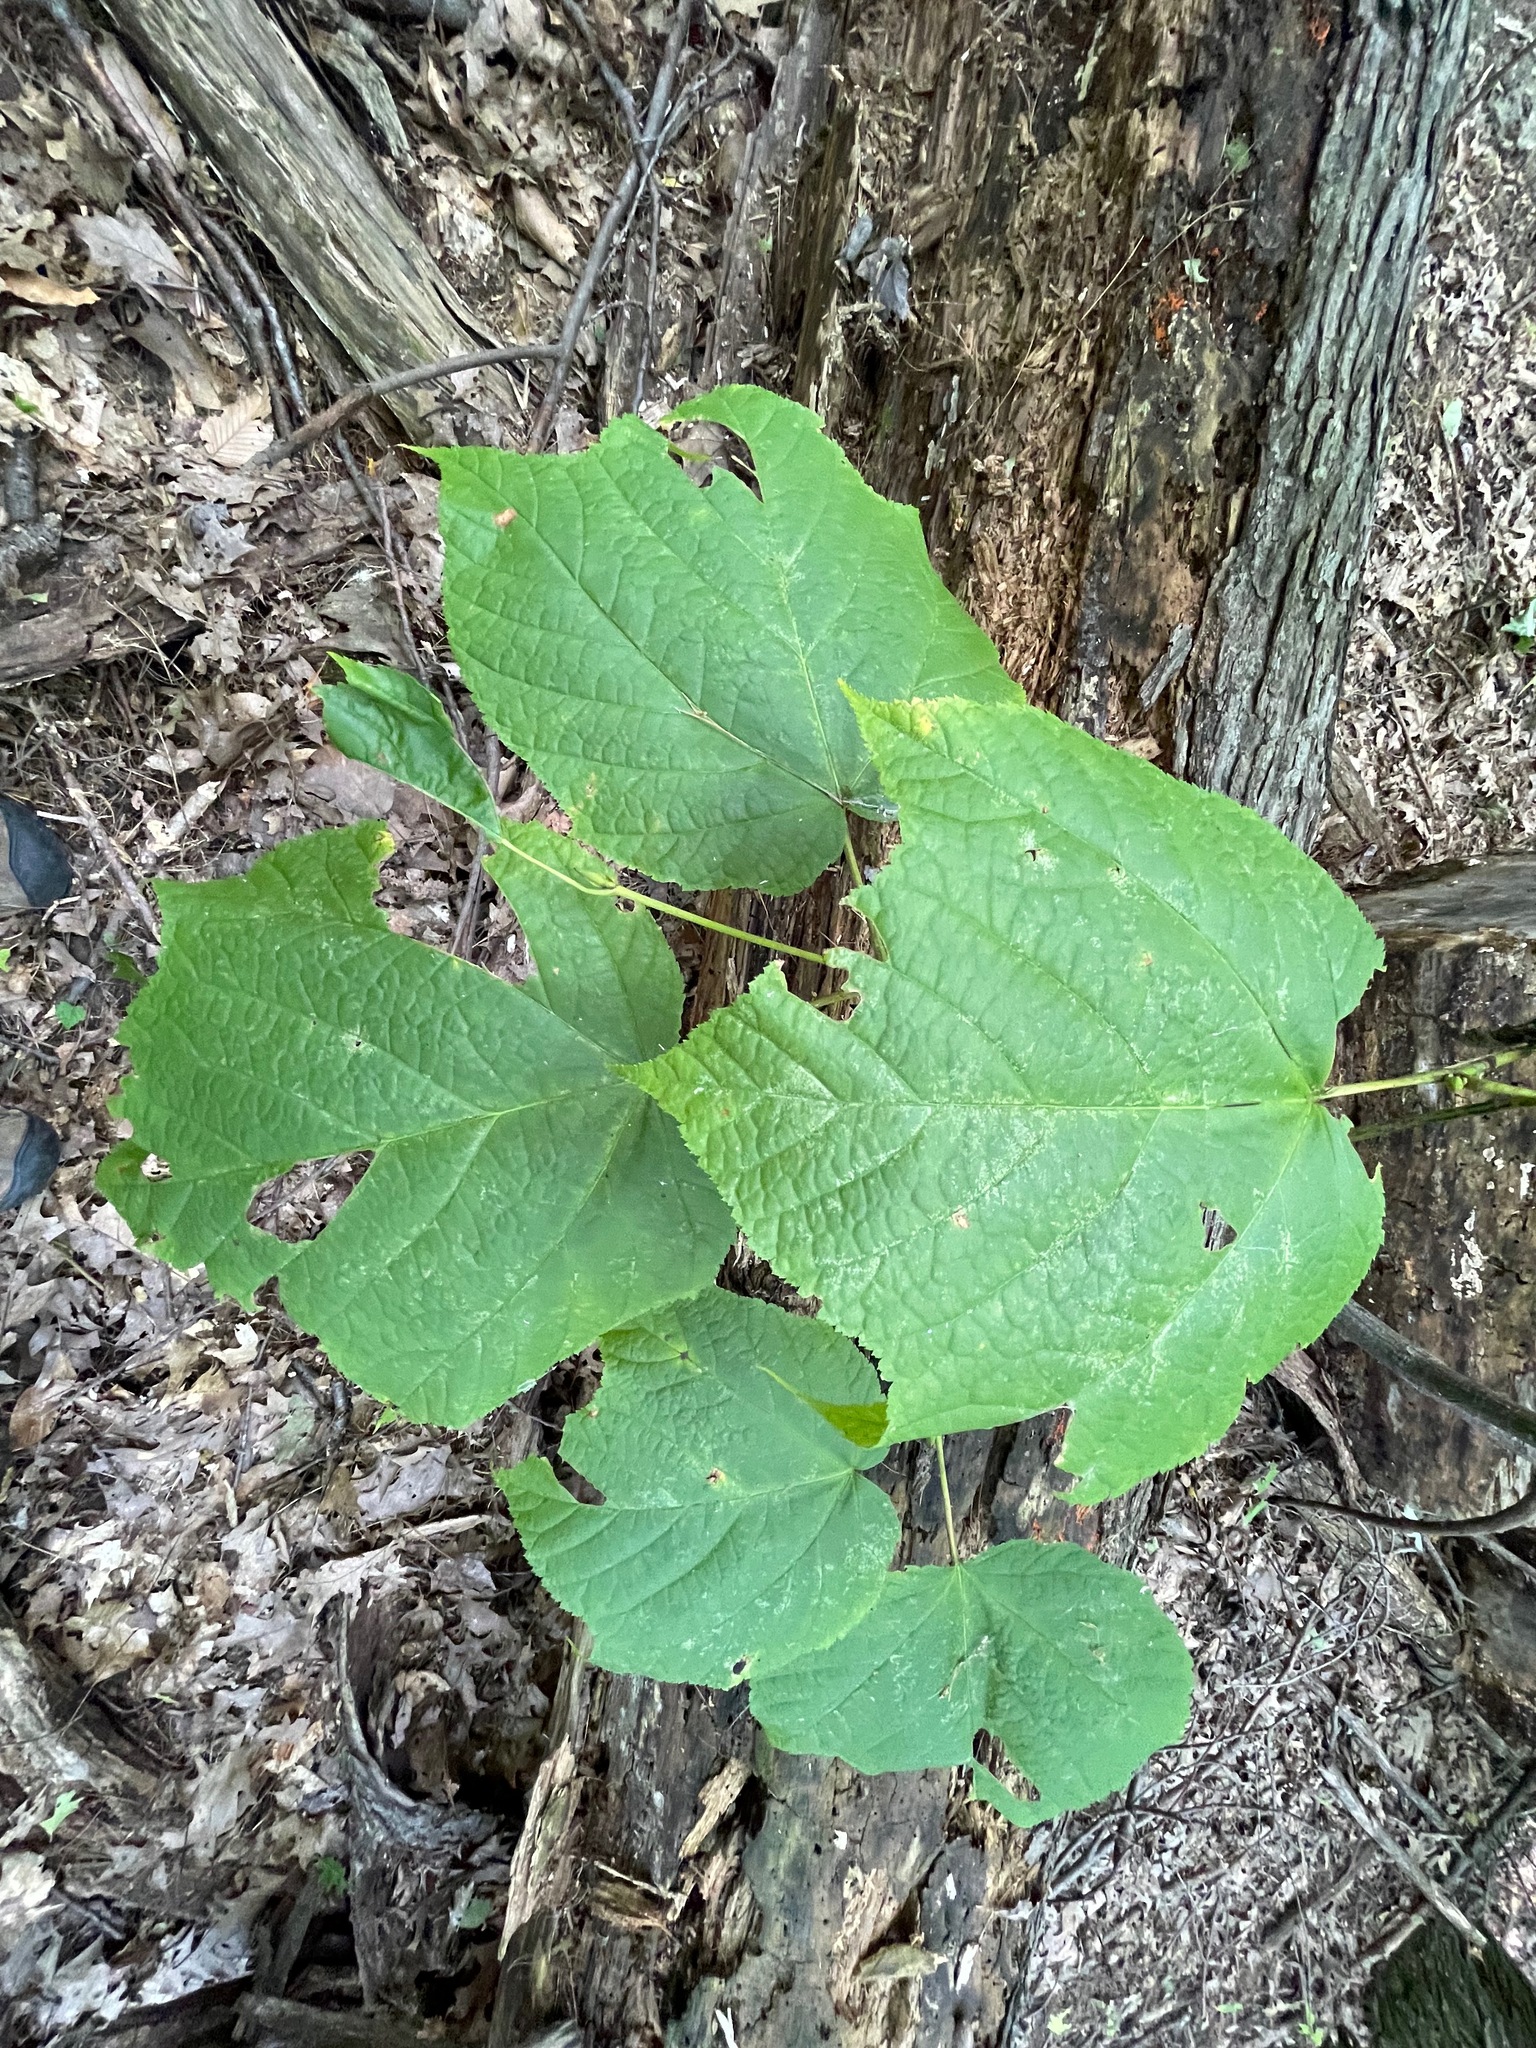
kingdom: Plantae
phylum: Tracheophyta
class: Magnoliopsida
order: Sapindales
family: Sapindaceae
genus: Acer
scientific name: Acer pensylvanicum
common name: Moosewood
